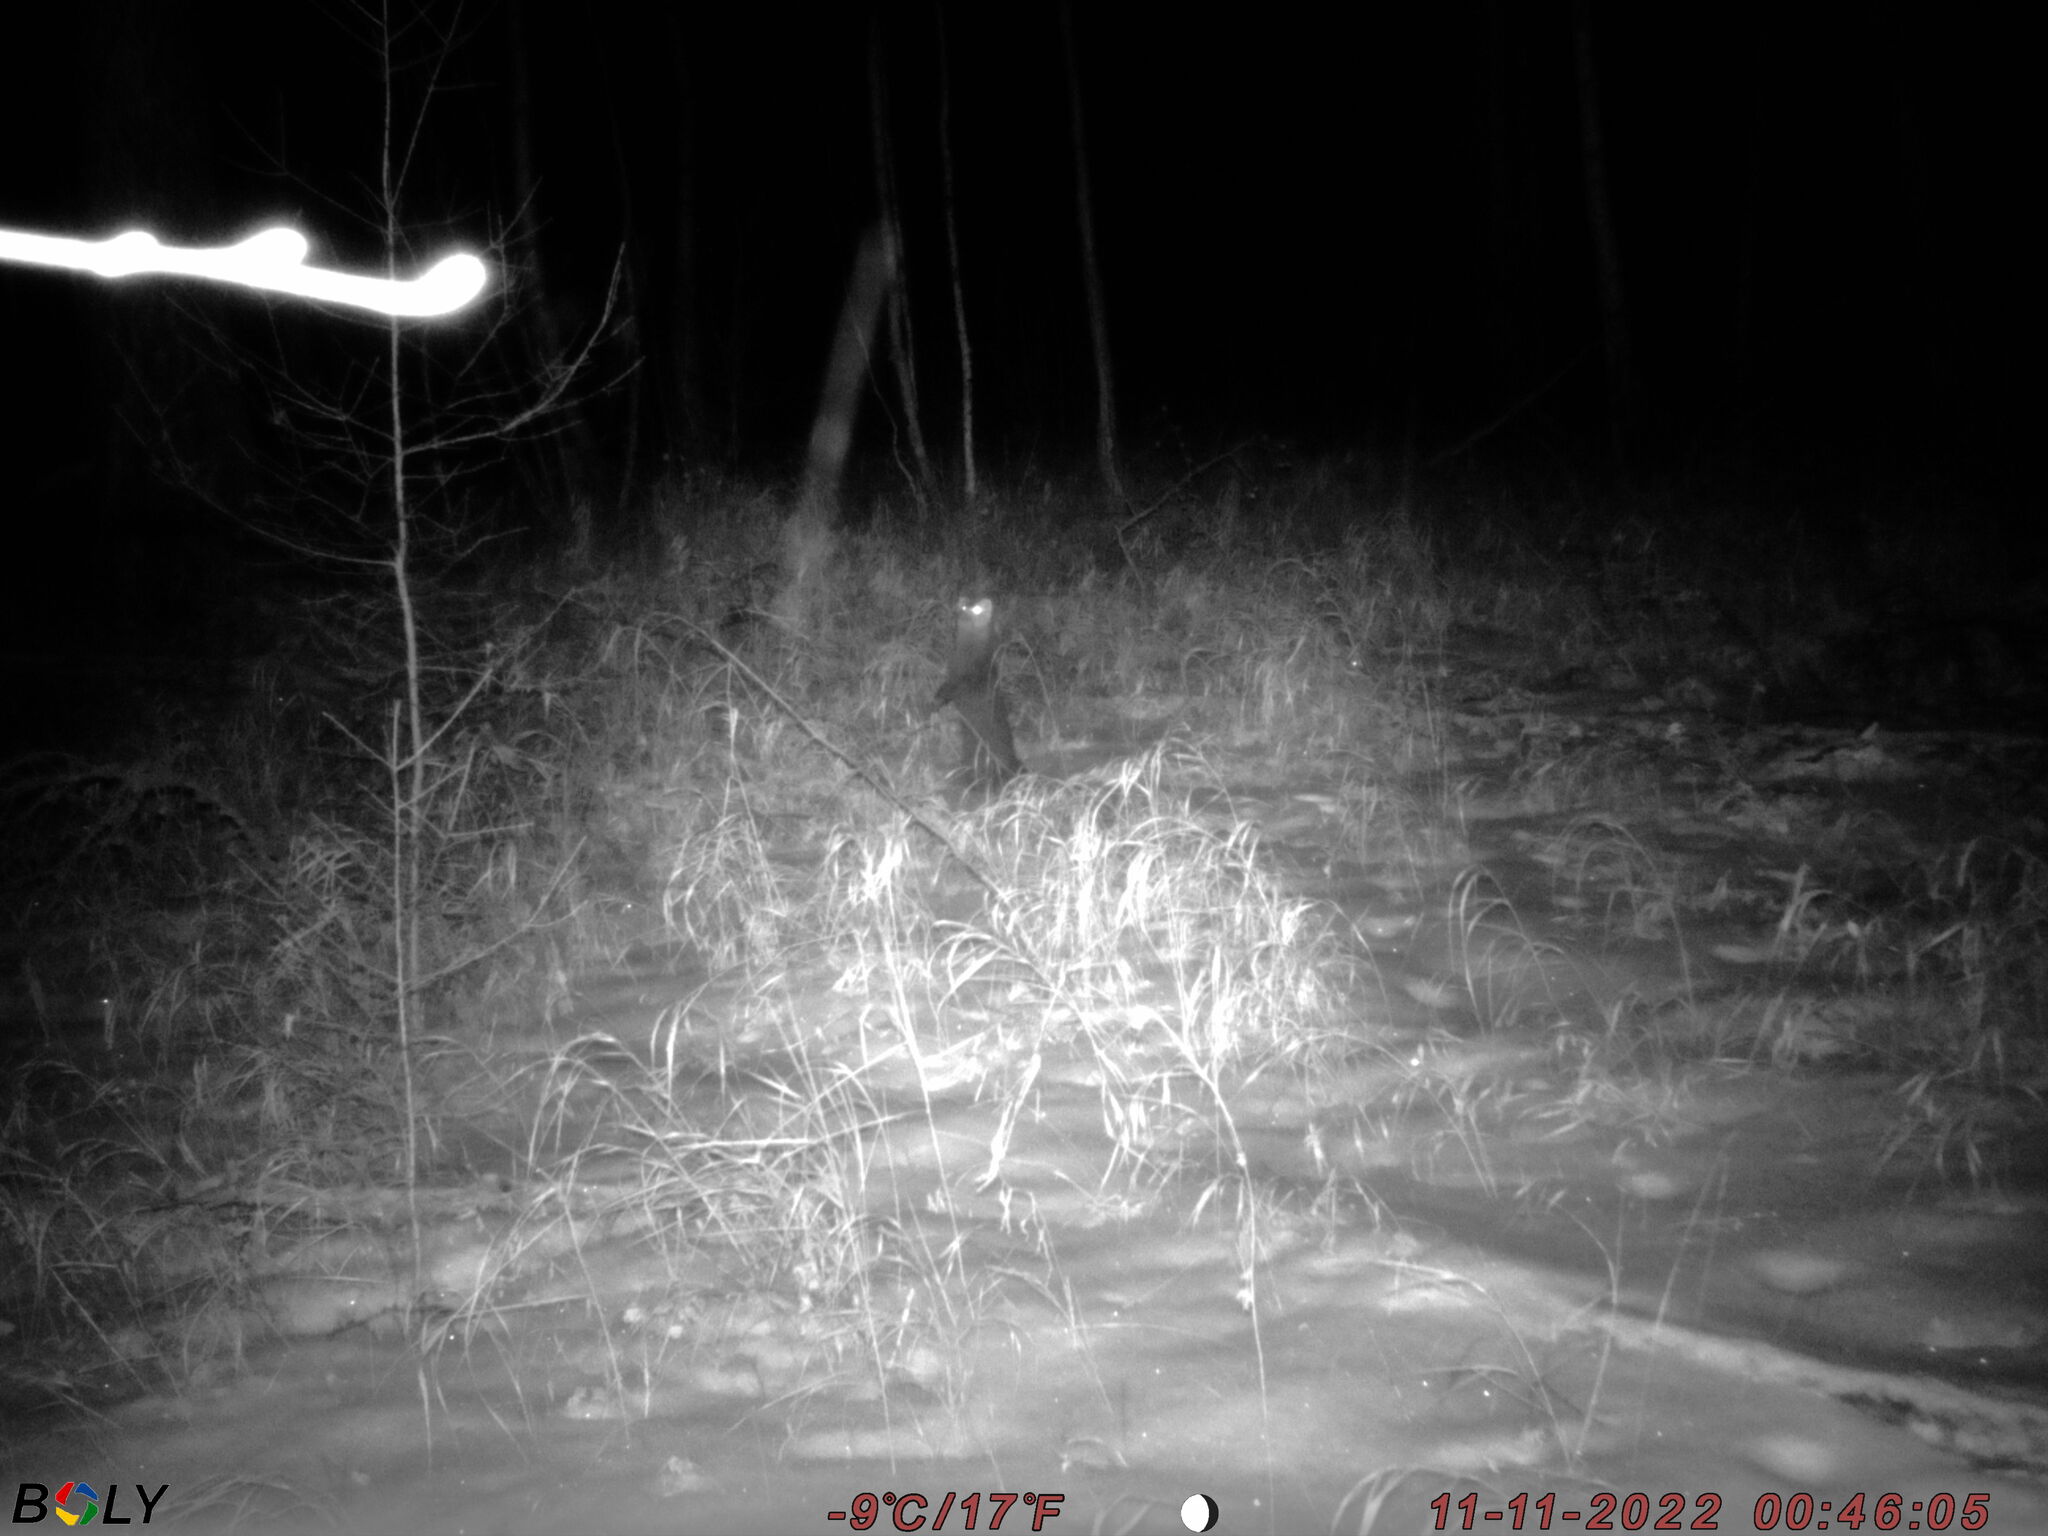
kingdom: Animalia
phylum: Chordata
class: Mammalia
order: Carnivora
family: Mustelidae
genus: Martes
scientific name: Martes zibellina
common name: Sable
